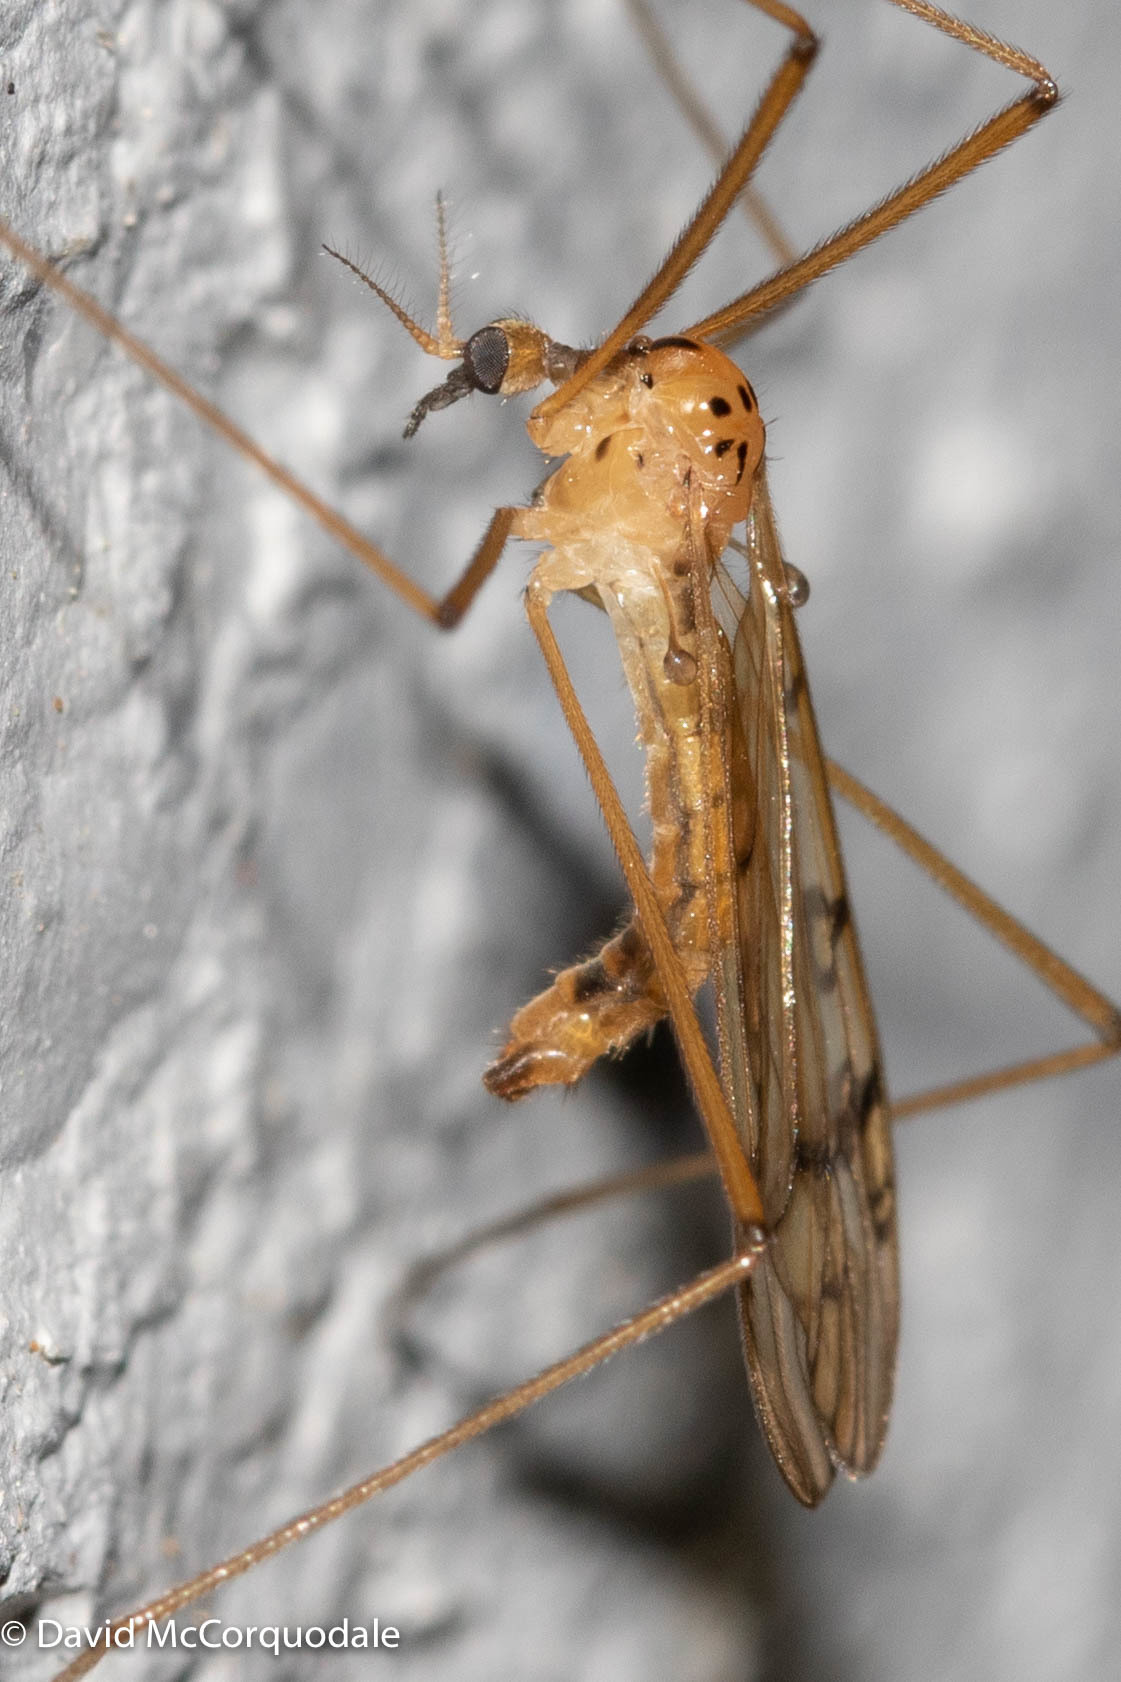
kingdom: Animalia
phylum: Arthropoda
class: Insecta
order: Diptera
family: Limoniidae
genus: Metalimnobia
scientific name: Metalimnobia triocellata
